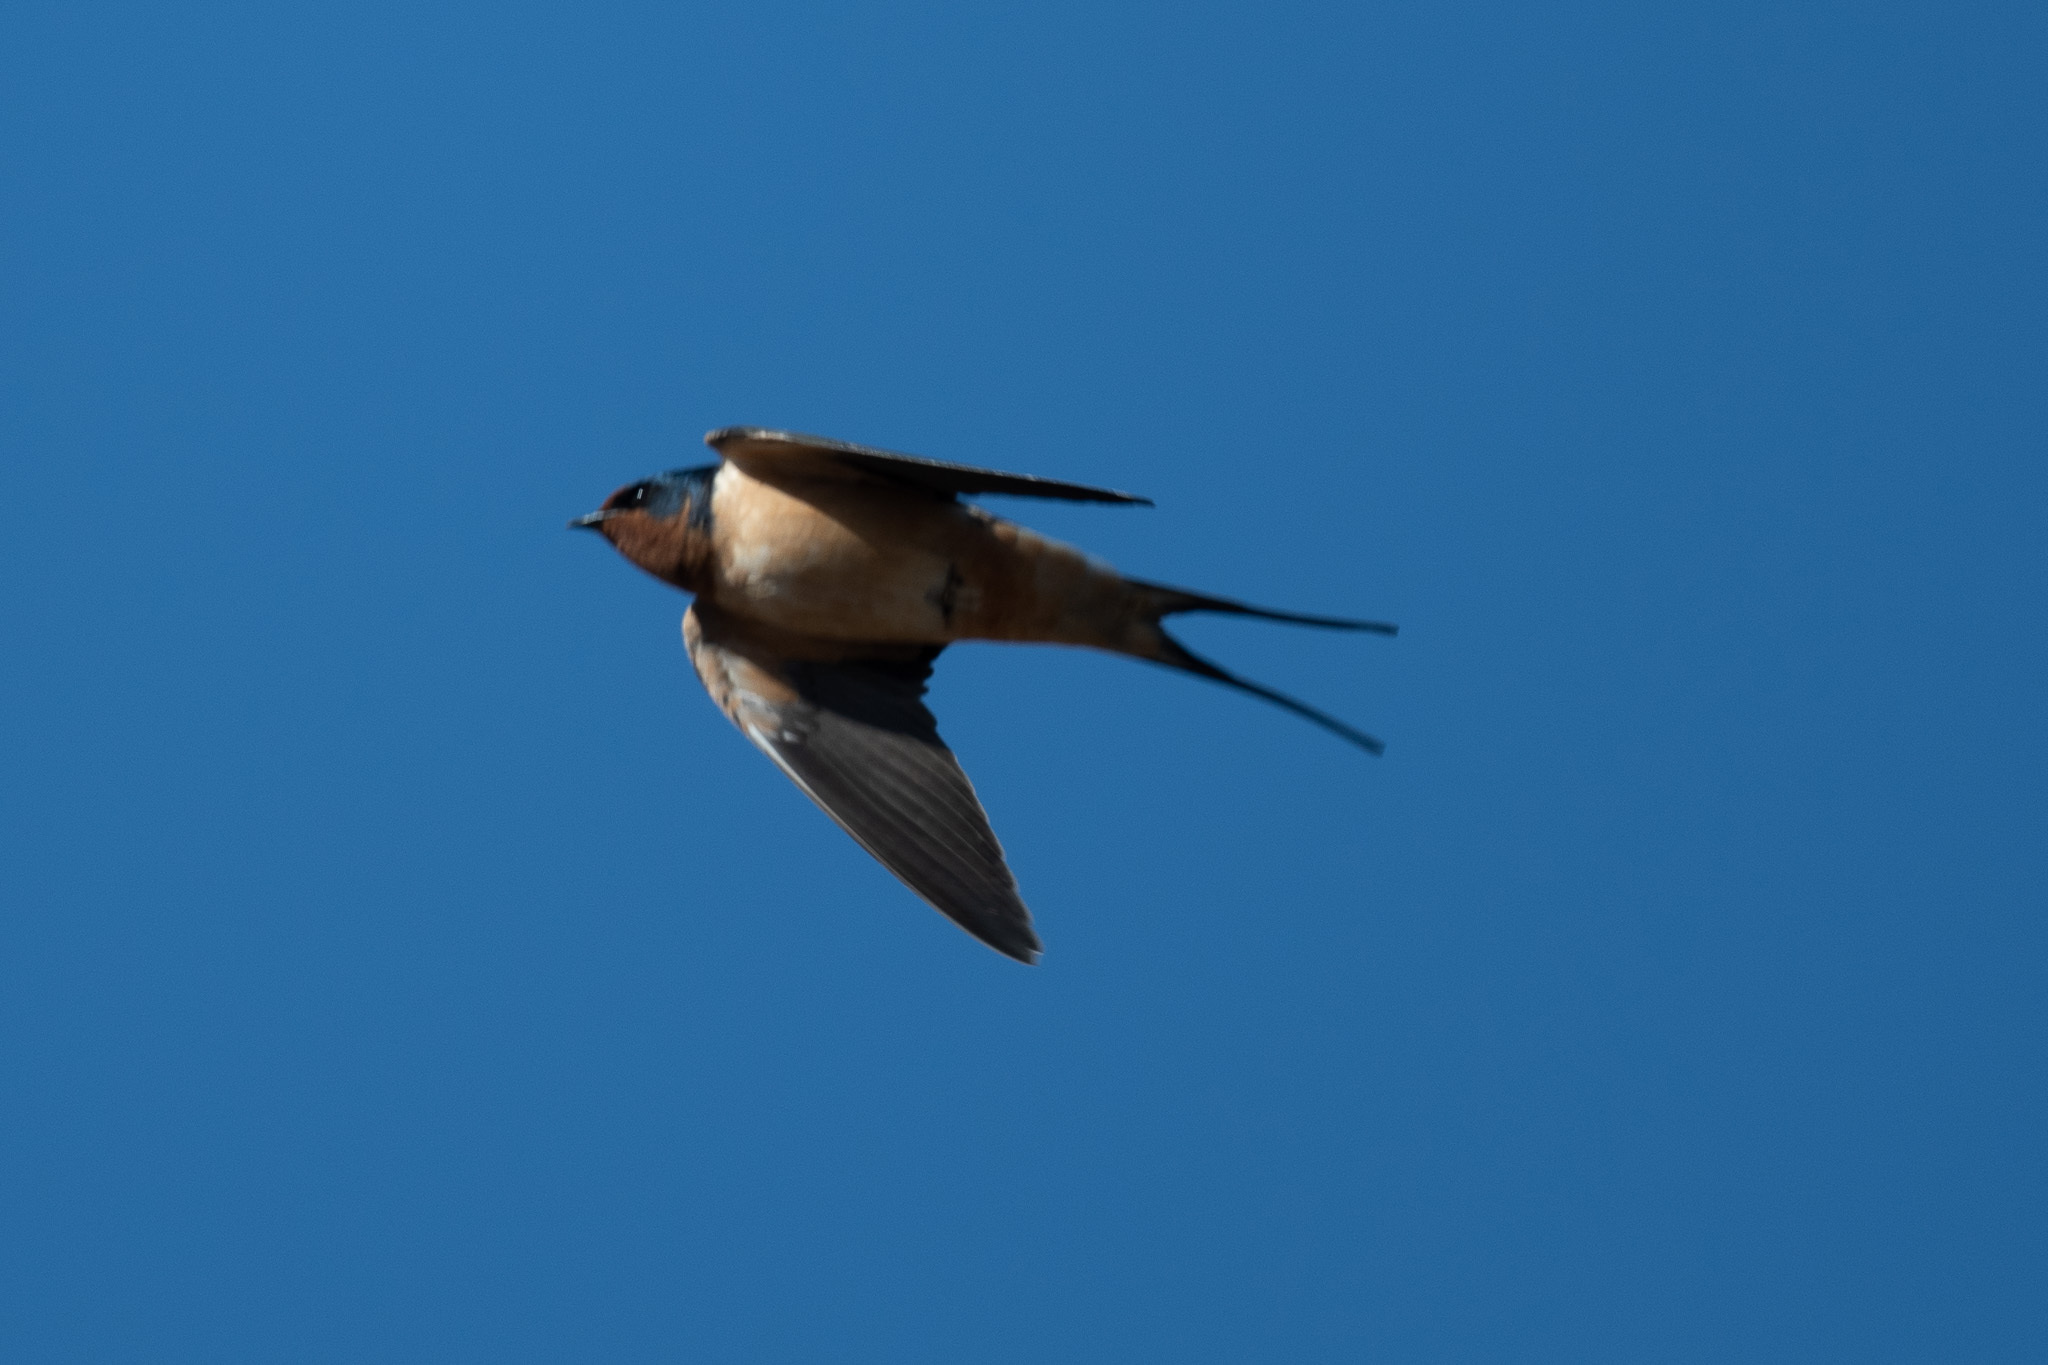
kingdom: Animalia
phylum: Chordata
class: Aves
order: Passeriformes
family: Hirundinidae
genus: Hirundo
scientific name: Hirundo rustica
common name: Barn swallow
